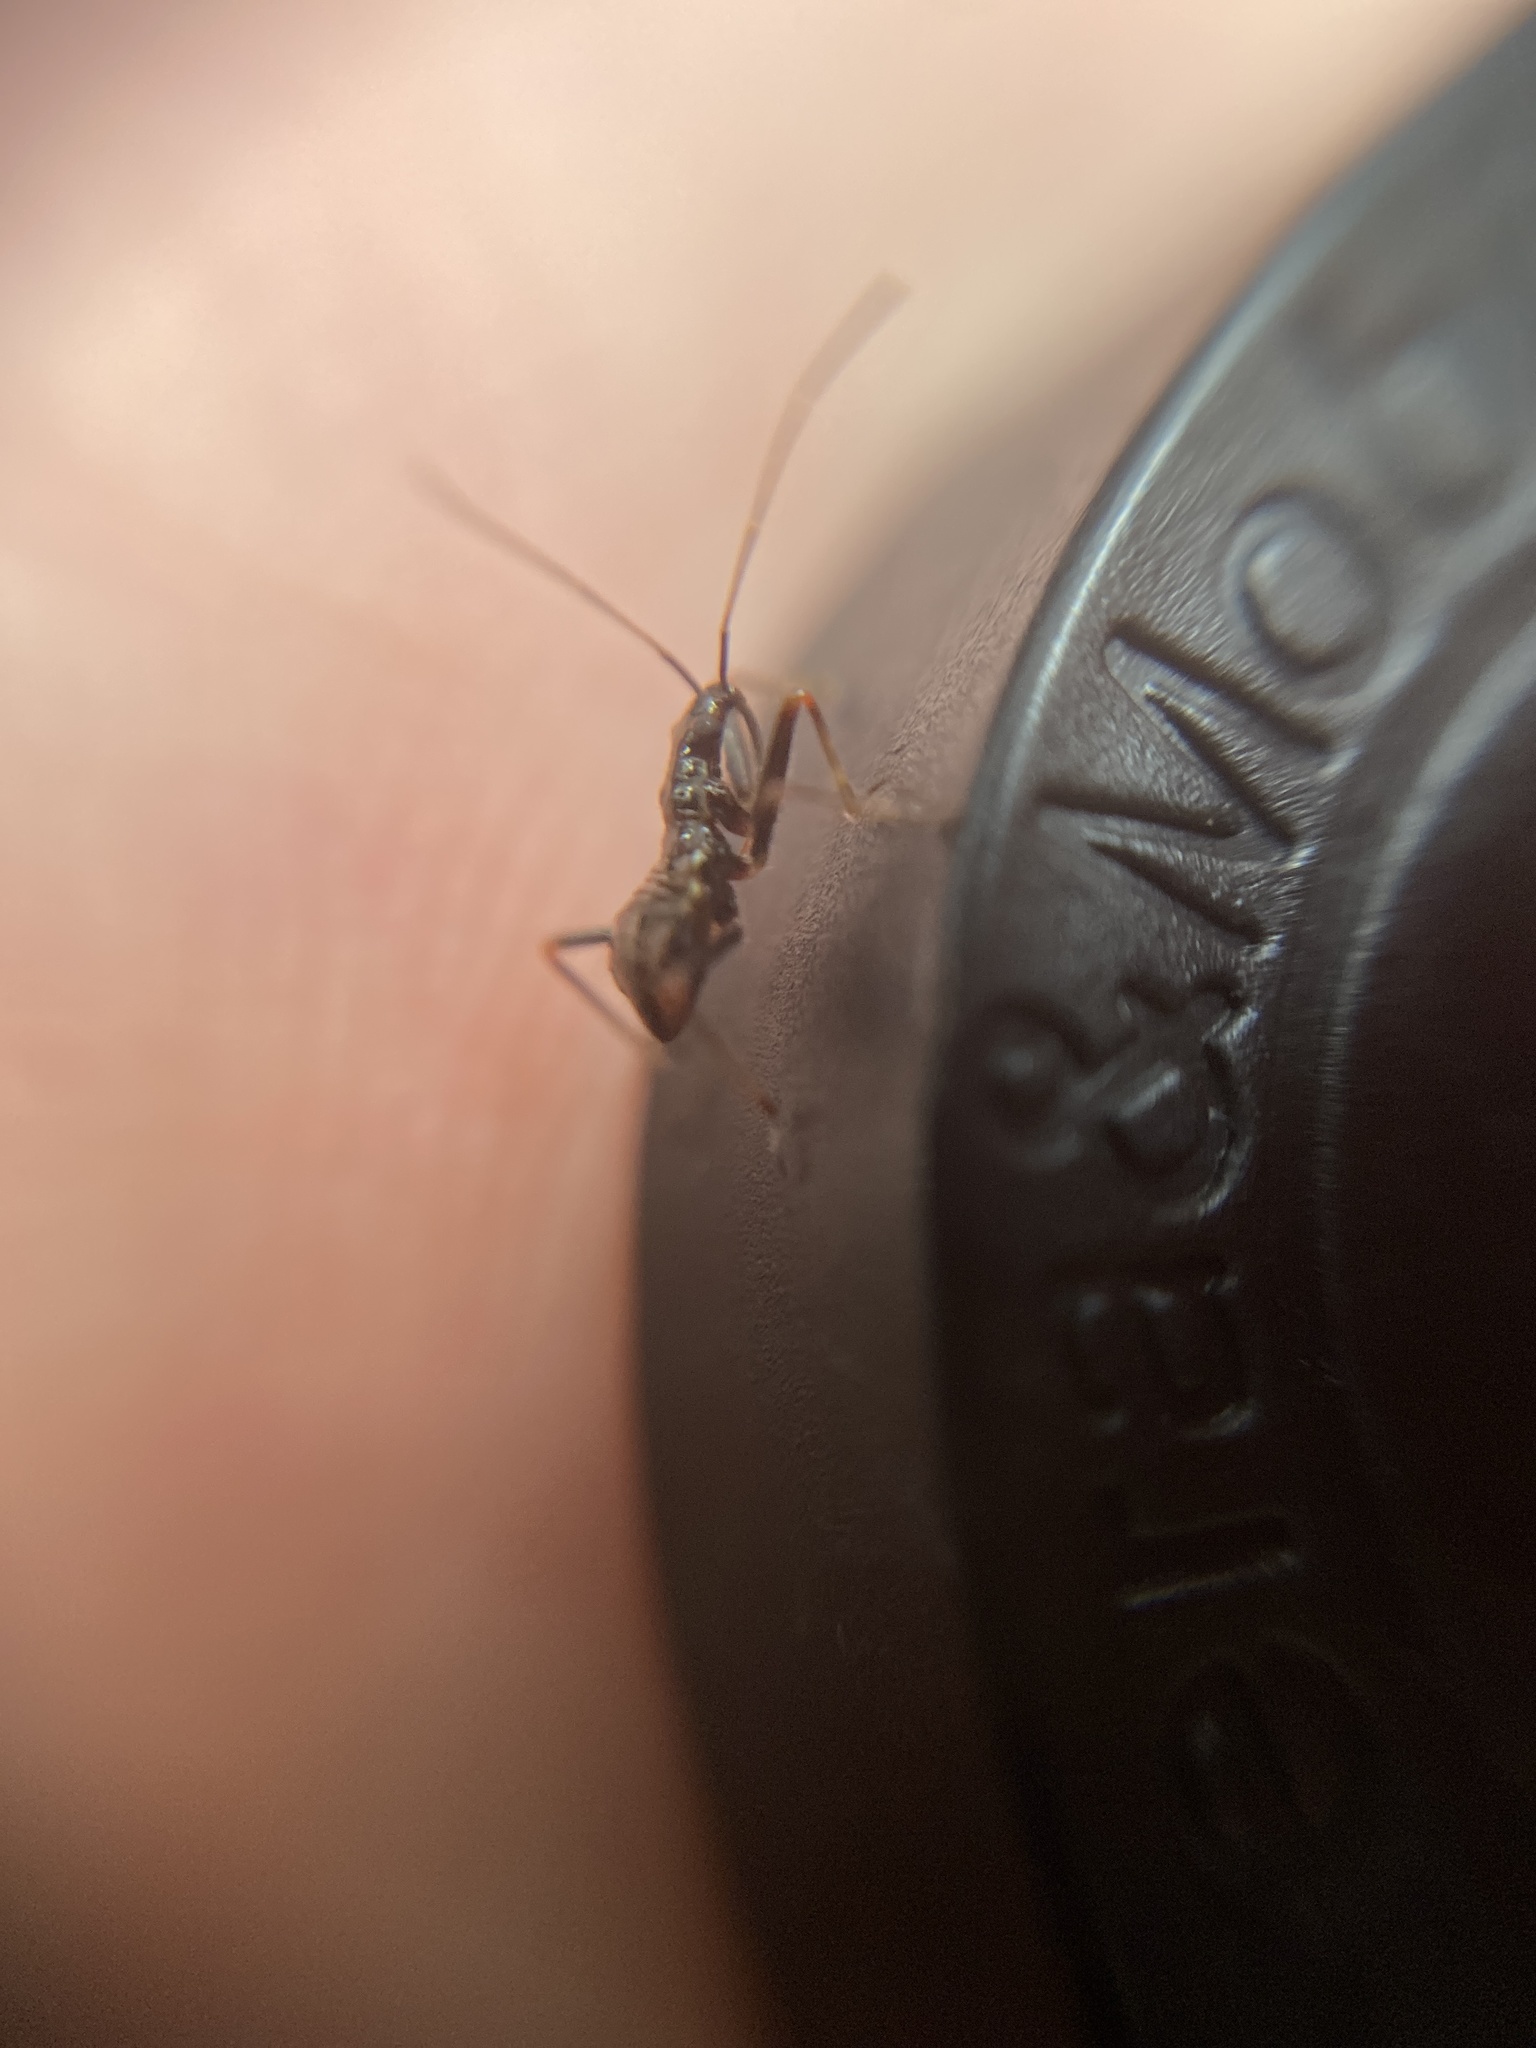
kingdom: Animalia
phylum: Arthropoda
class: Insecta
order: Hemiptera
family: Nabidae
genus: Himacerus
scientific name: Himacerus apterus
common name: Tree damsel bug
